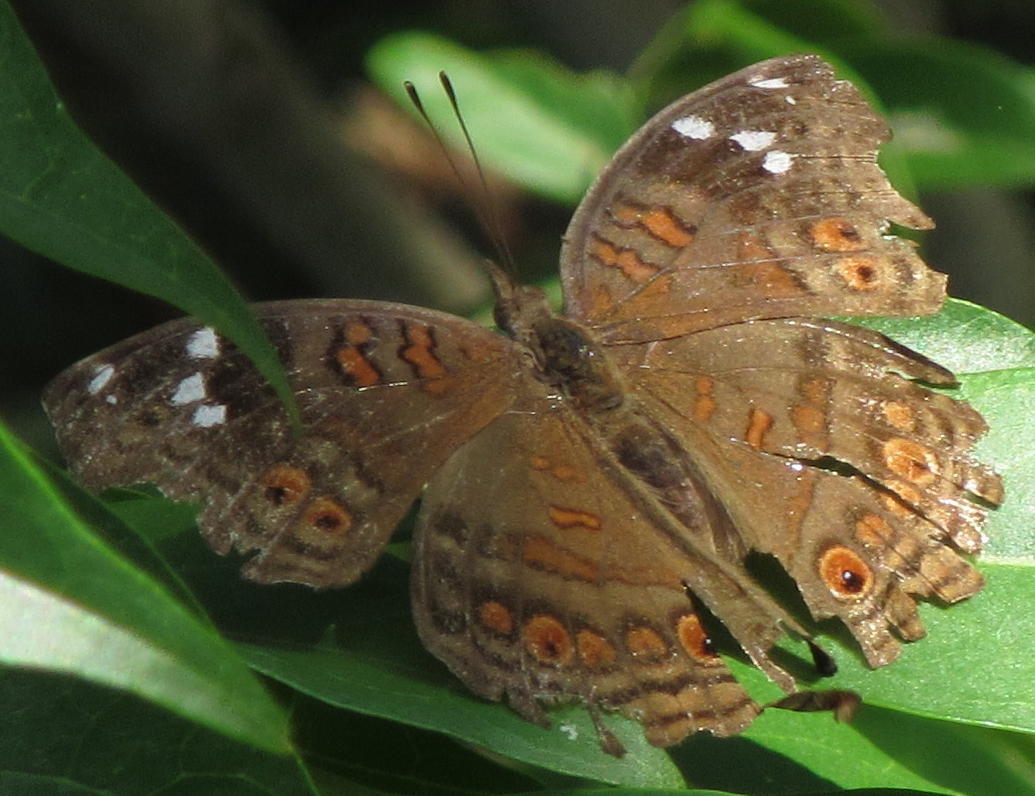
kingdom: Animalia
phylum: Arthropoda
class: Insecta
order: Lepidoptera
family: Nymphalidae
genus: Junonia
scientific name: Junonia natalica
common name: Brown pansy
